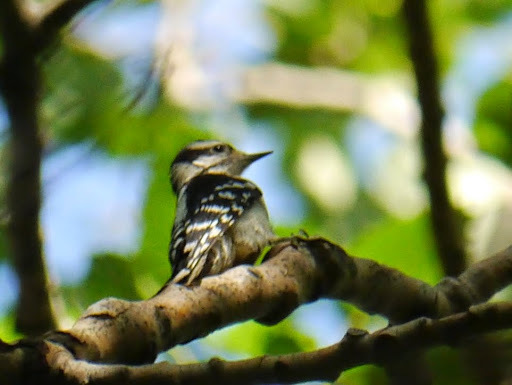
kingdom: Animalia
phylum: Chordata
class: Aves
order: Piciformes
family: Picidae
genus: Dryobates
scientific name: Dryobates pubescens
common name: Downy woodpecker
